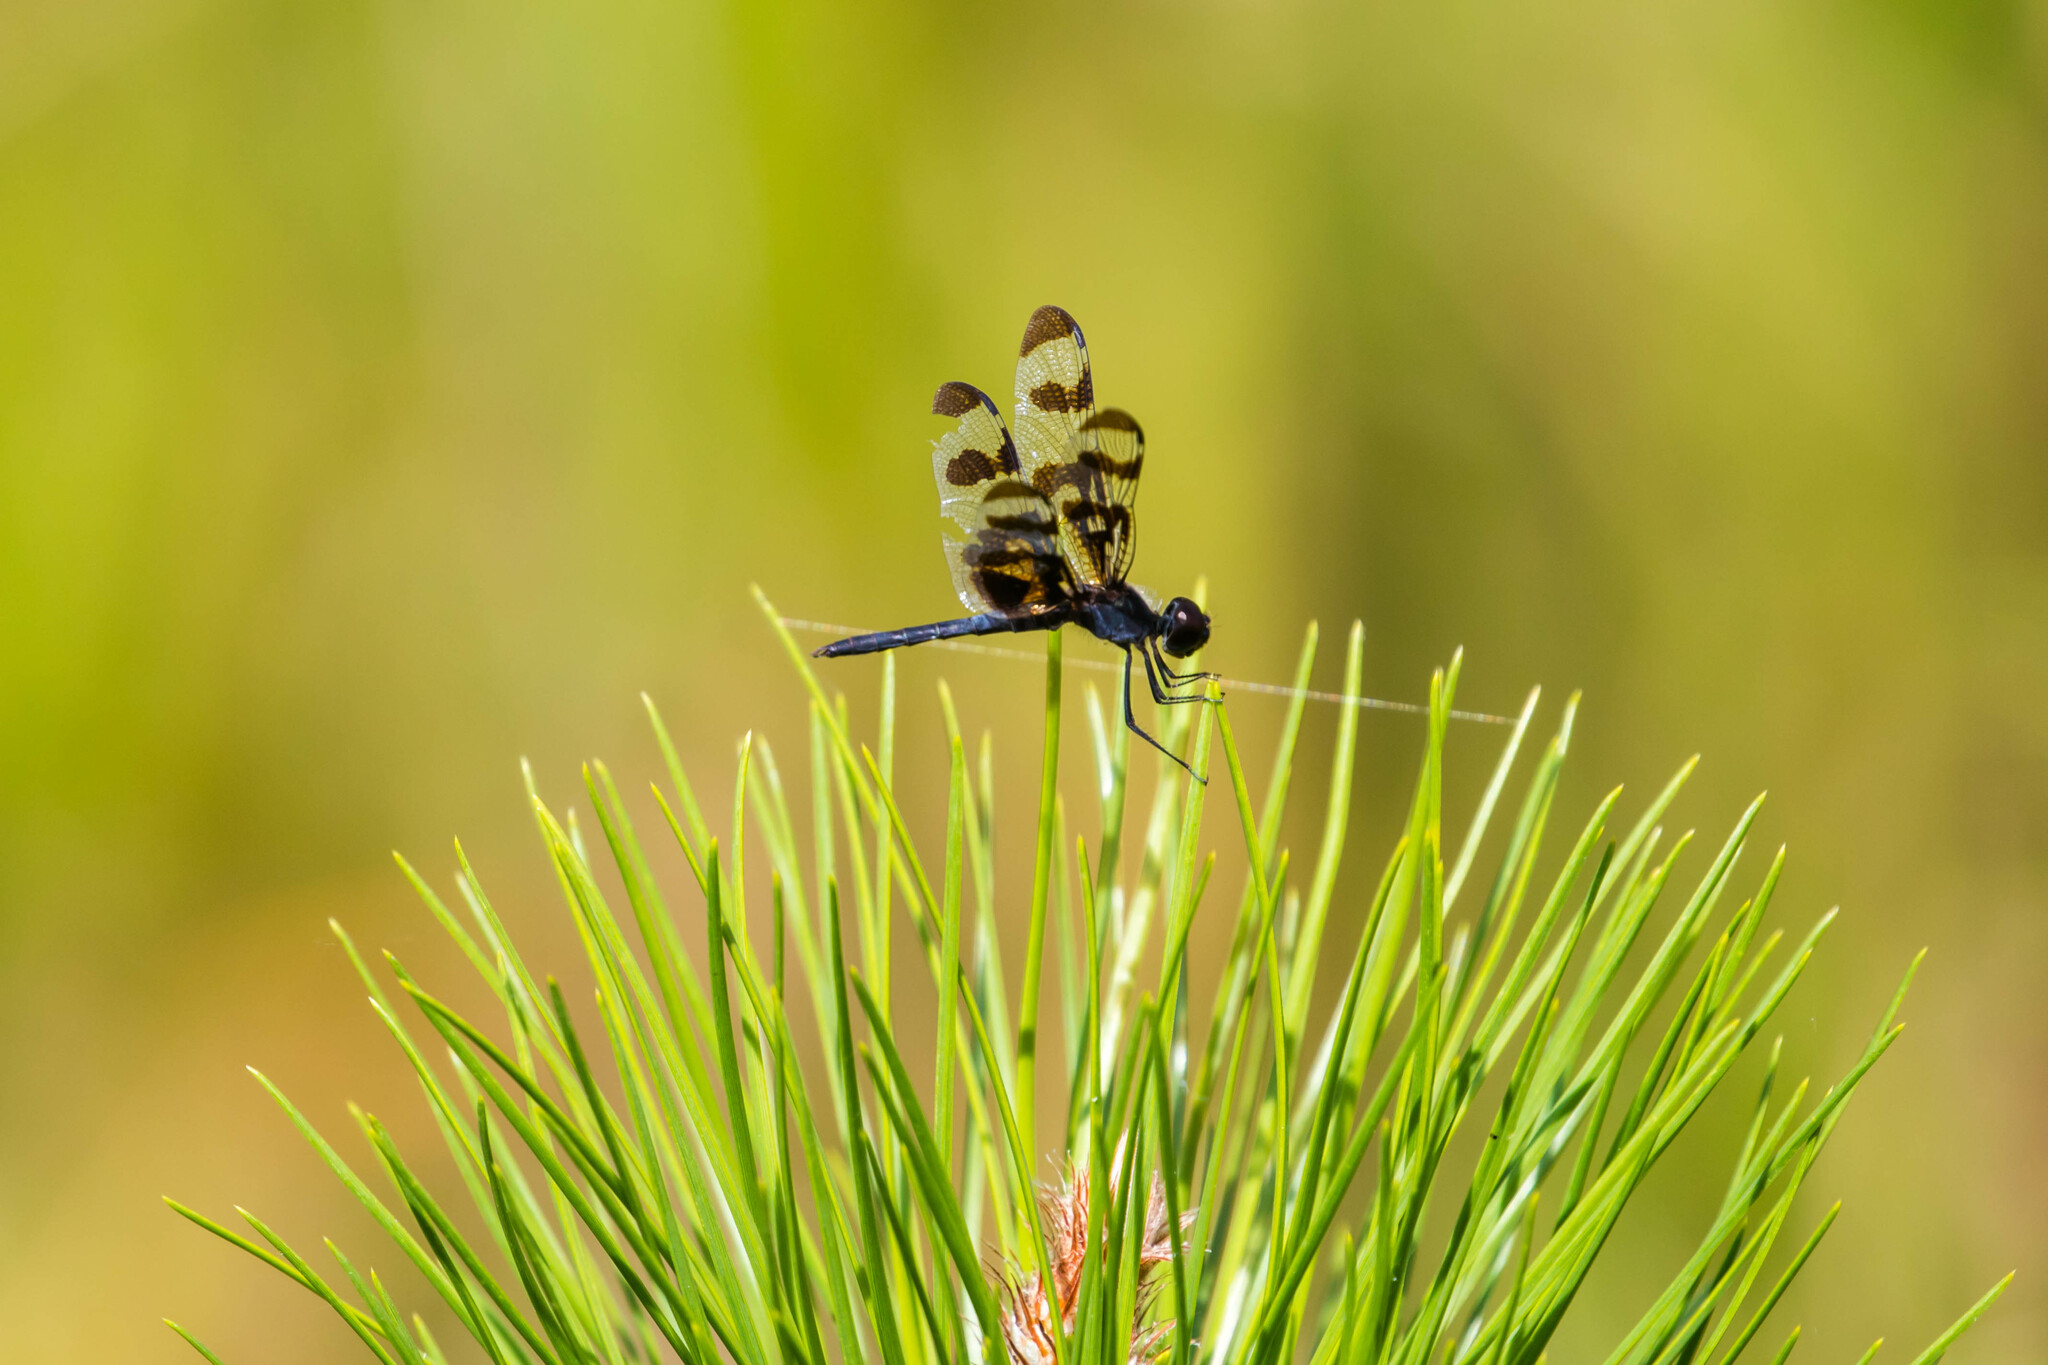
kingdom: Animalia
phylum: Arthropoda
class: Insecta
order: Odonata
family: Libellulidae
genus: Celithemis
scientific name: Celithemis fasciata
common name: Banded pennant
